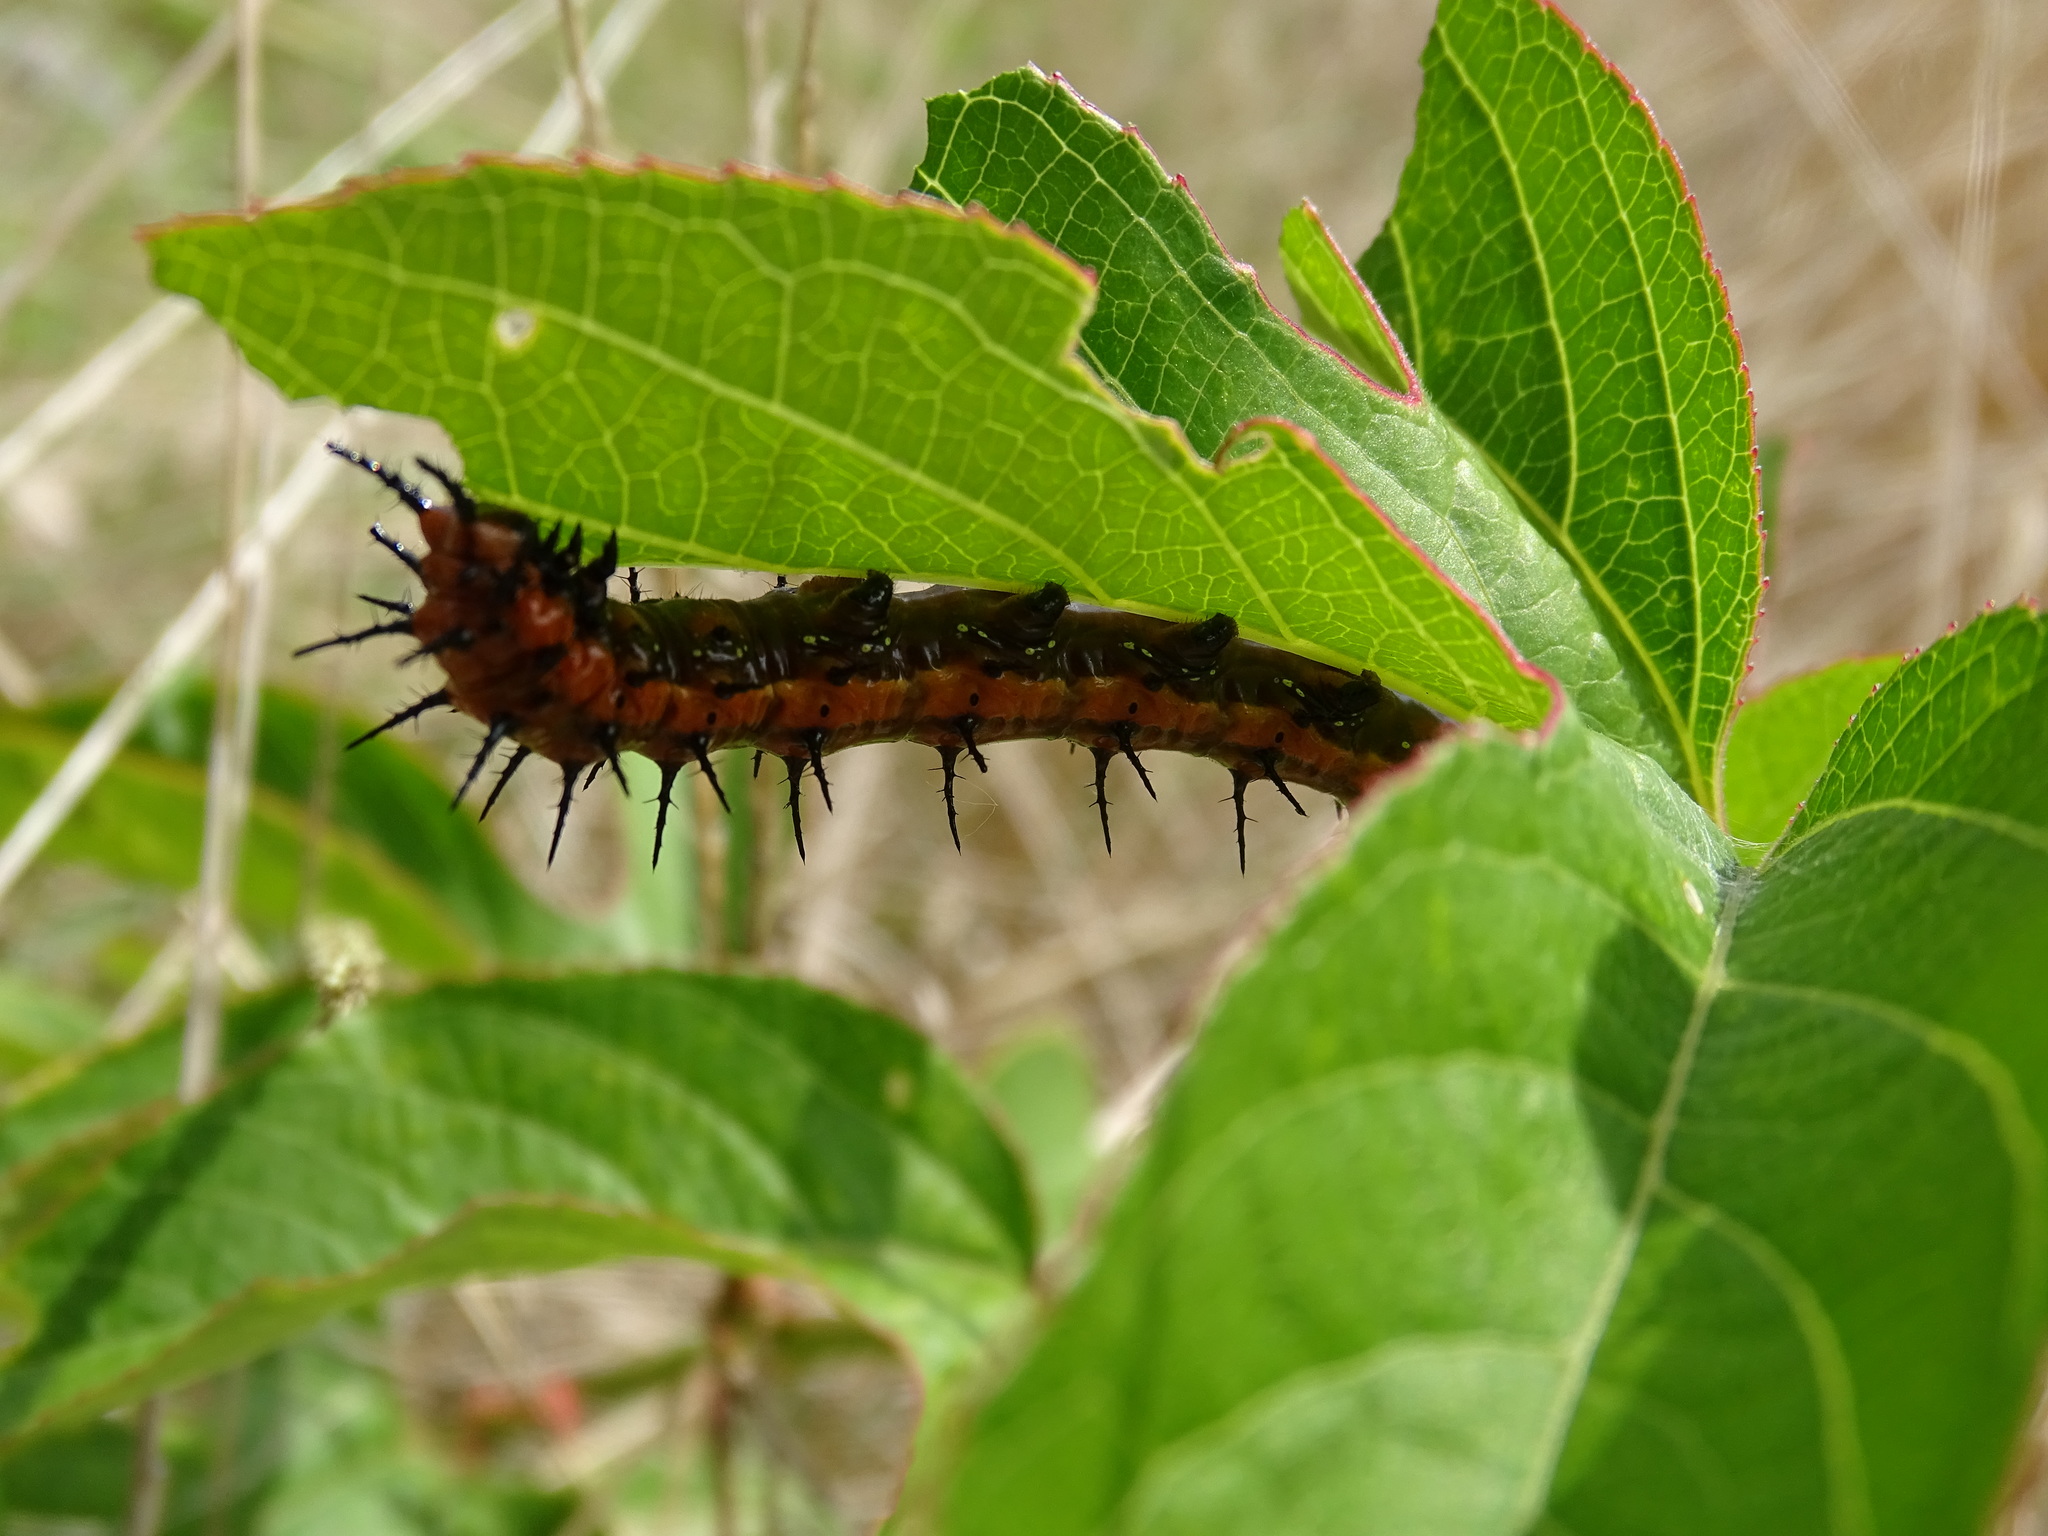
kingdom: Animalia
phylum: Arthropoda
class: Insecta
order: Lepidoptera
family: Nymphalidae
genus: Dione
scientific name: Dione vanillae
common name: Gulf fritillary
